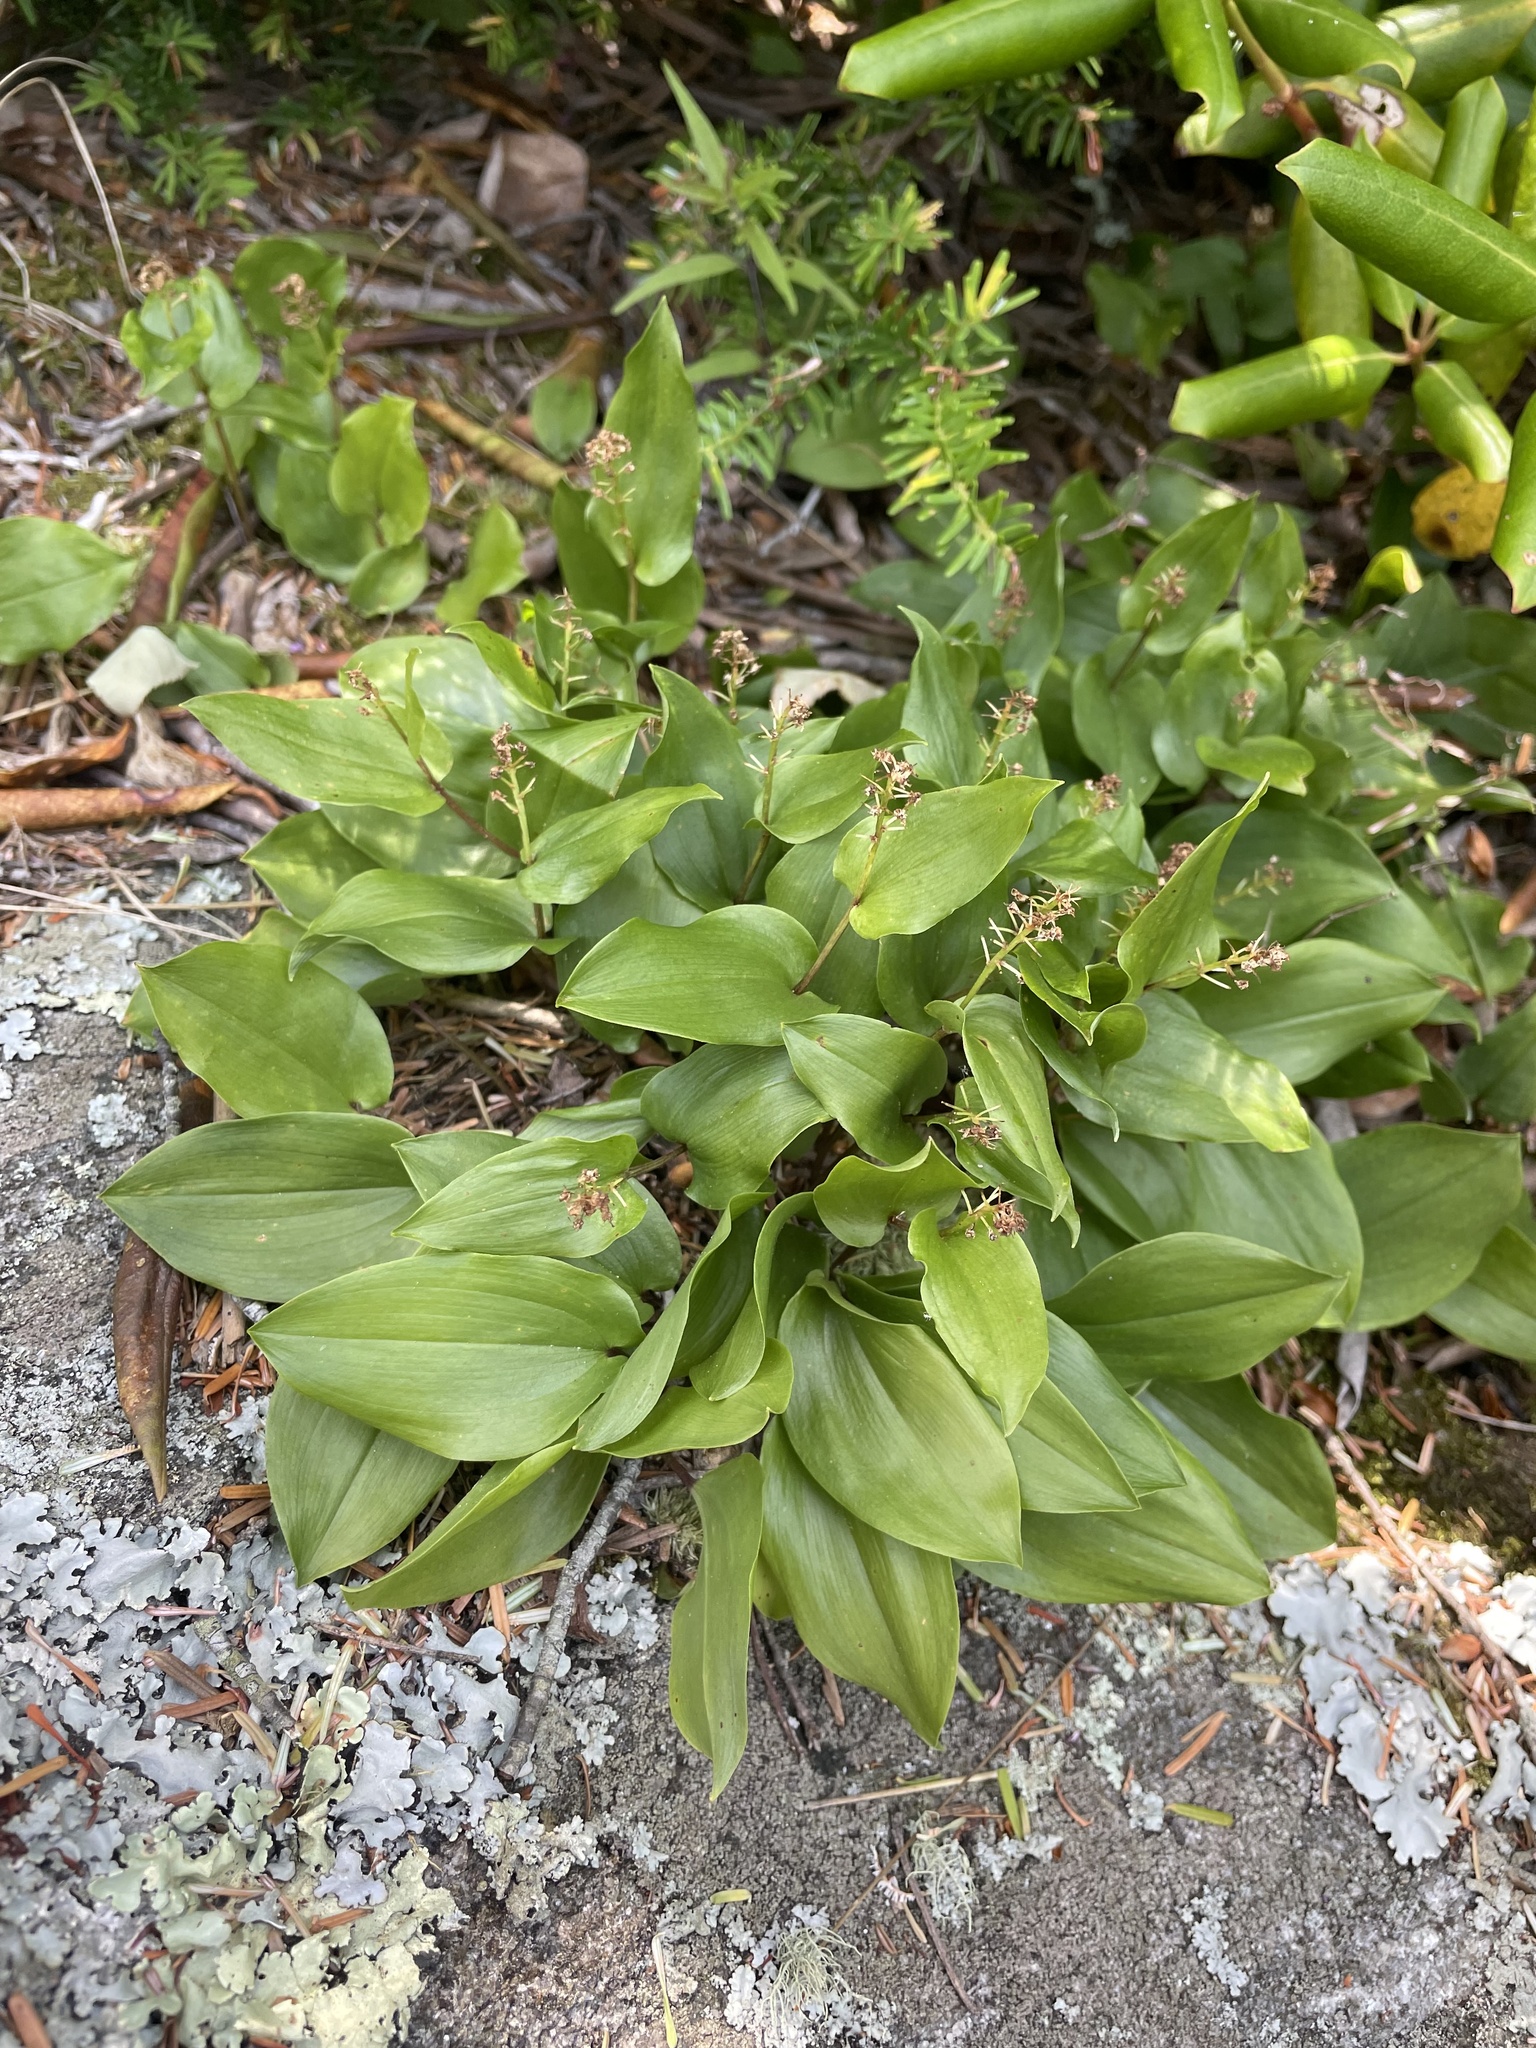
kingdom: Plantae
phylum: Tracheophyta
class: Liliopsida
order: Asparagales
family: Asparagaceae
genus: Maianthemum
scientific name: Maianthemum canadense
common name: False lily-of-the-valley
